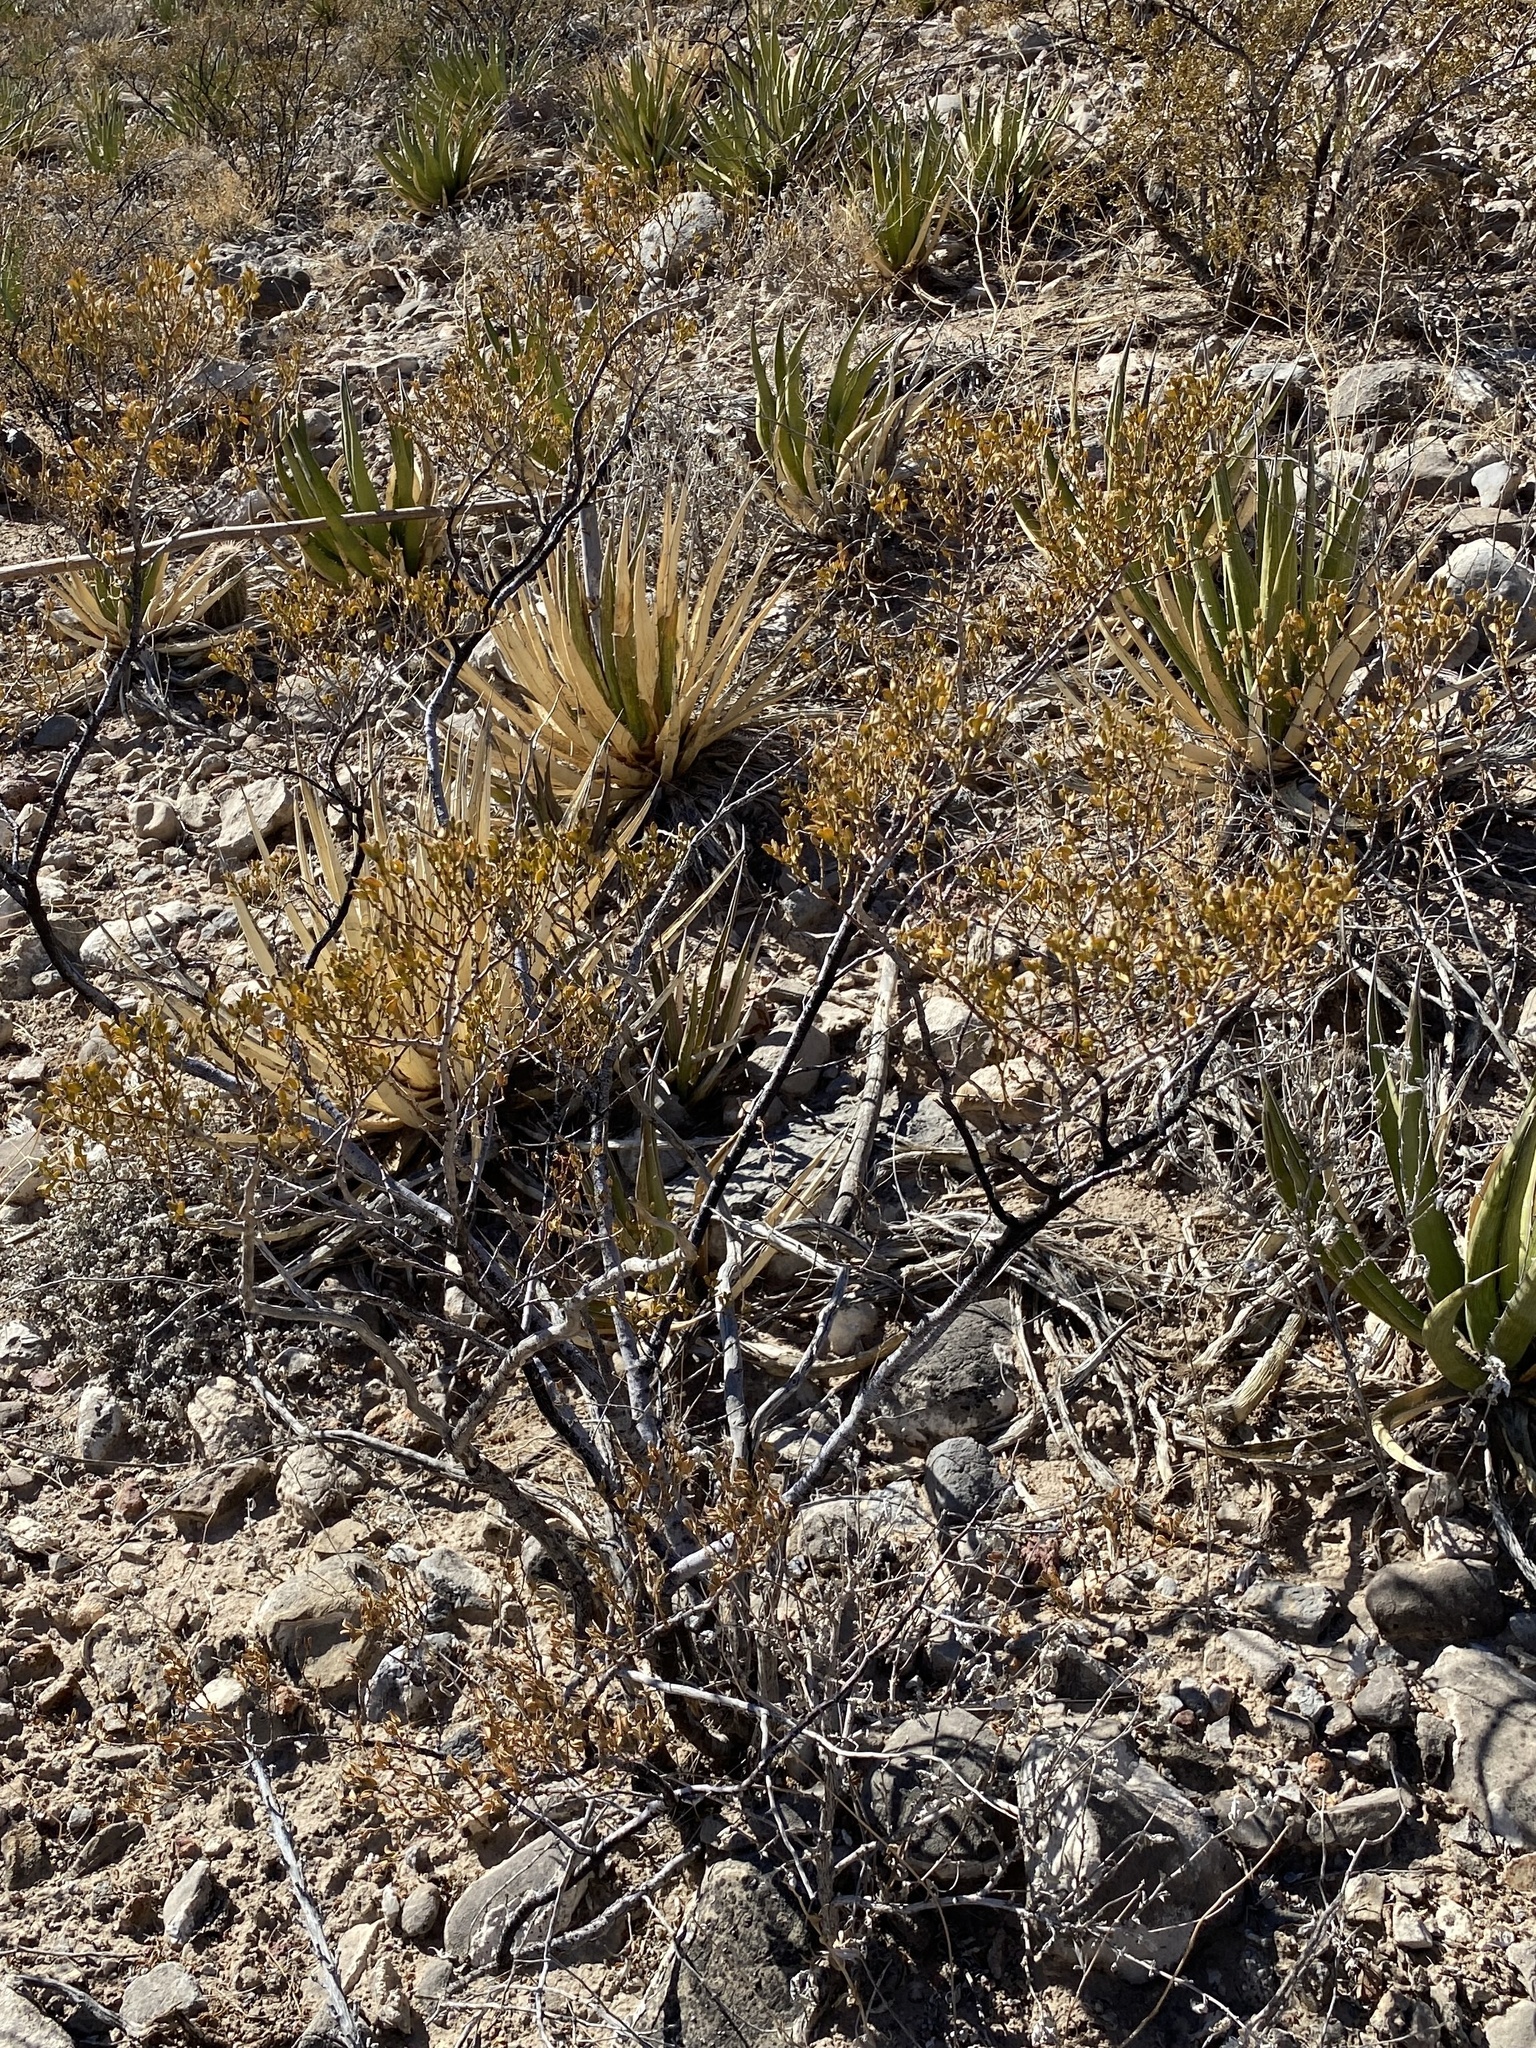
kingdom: Plantae
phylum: Tracheophyta
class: Magnoliopsida
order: Zygophyllales
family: Zygophyllaceae
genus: Larrea
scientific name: Larrea tridentata
